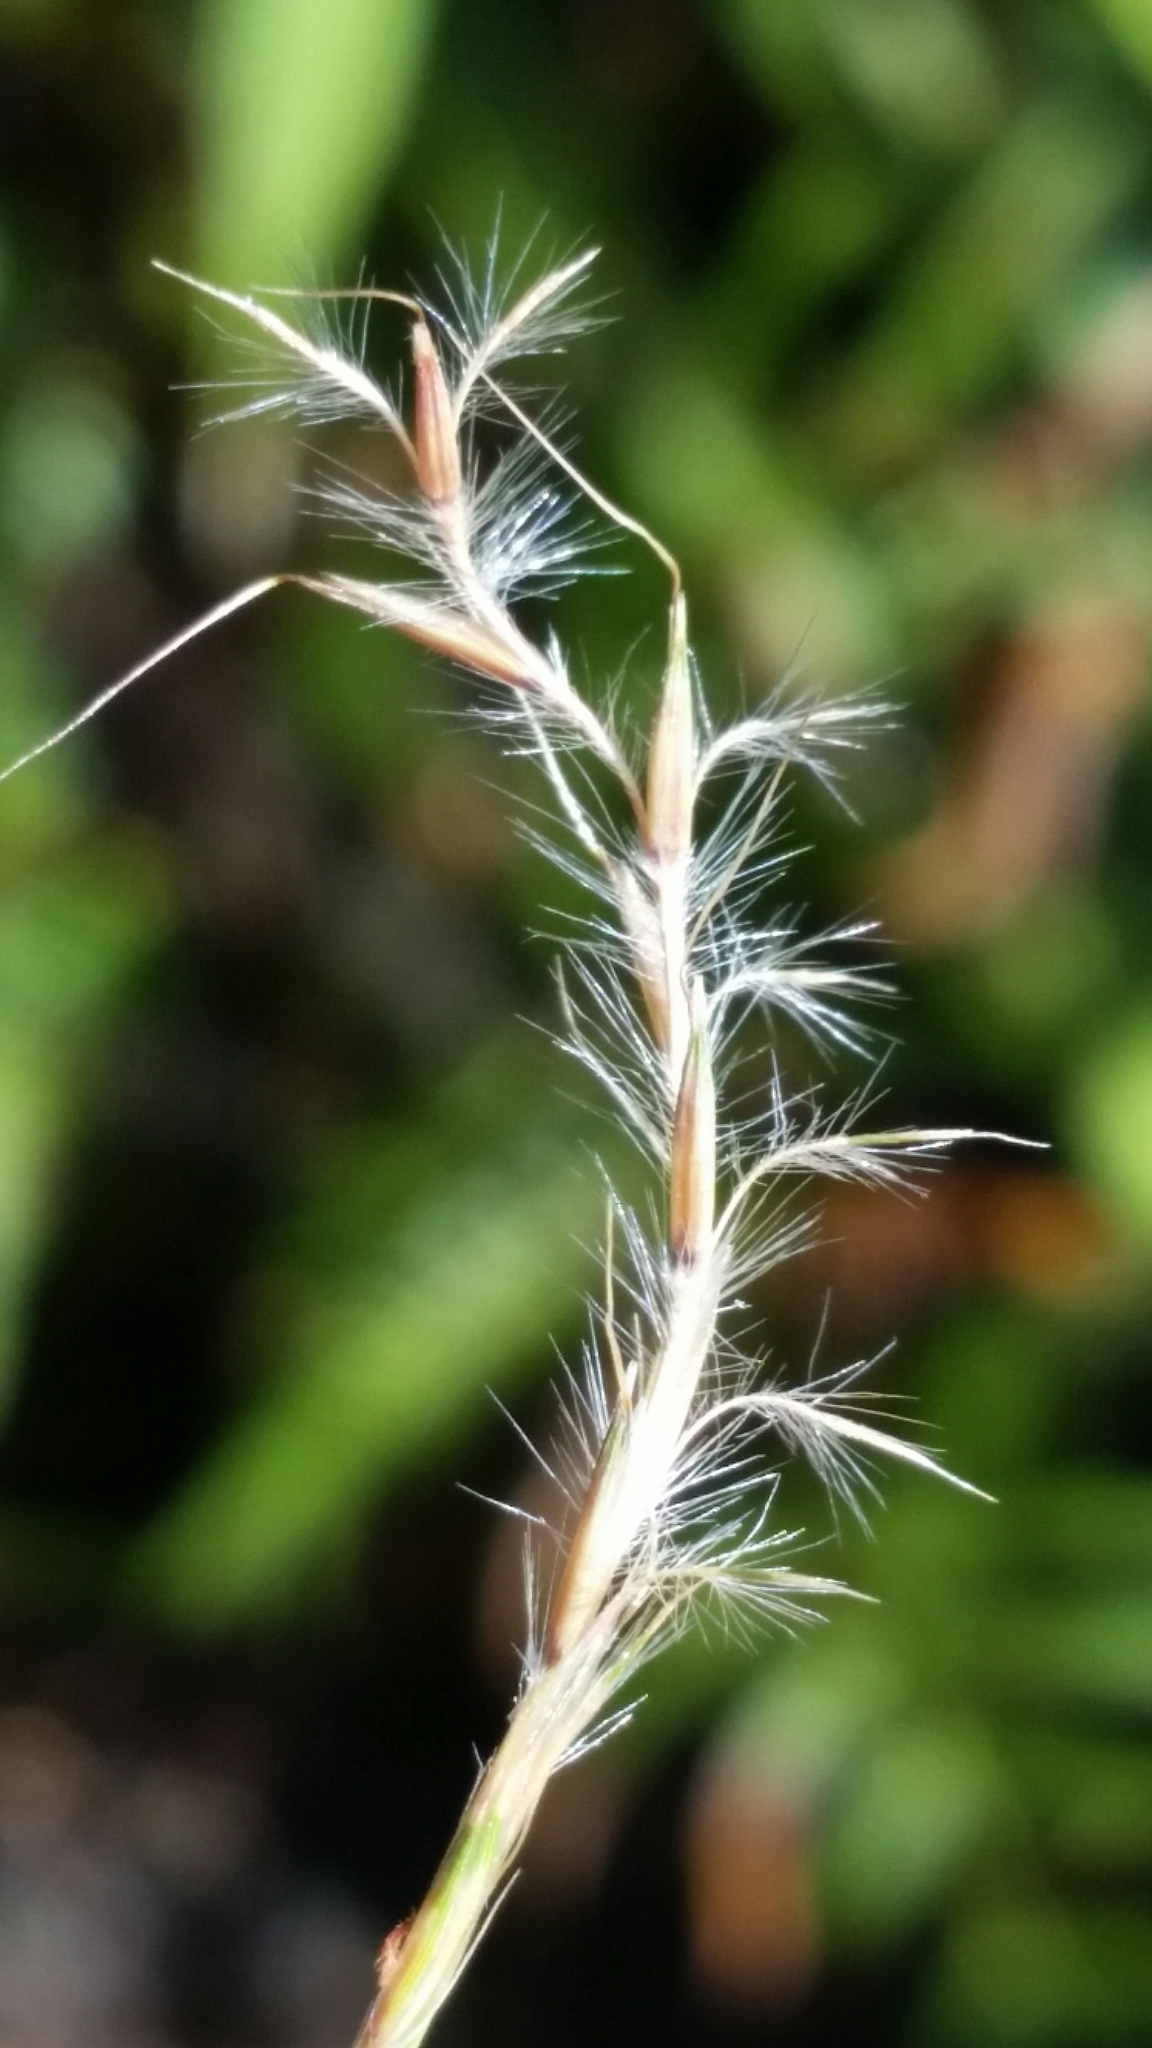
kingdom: Plantae
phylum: Tracheophyta
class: Liliopsida
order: Poales
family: Poaceae
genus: Andropogon
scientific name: Andropogon stolonifer
